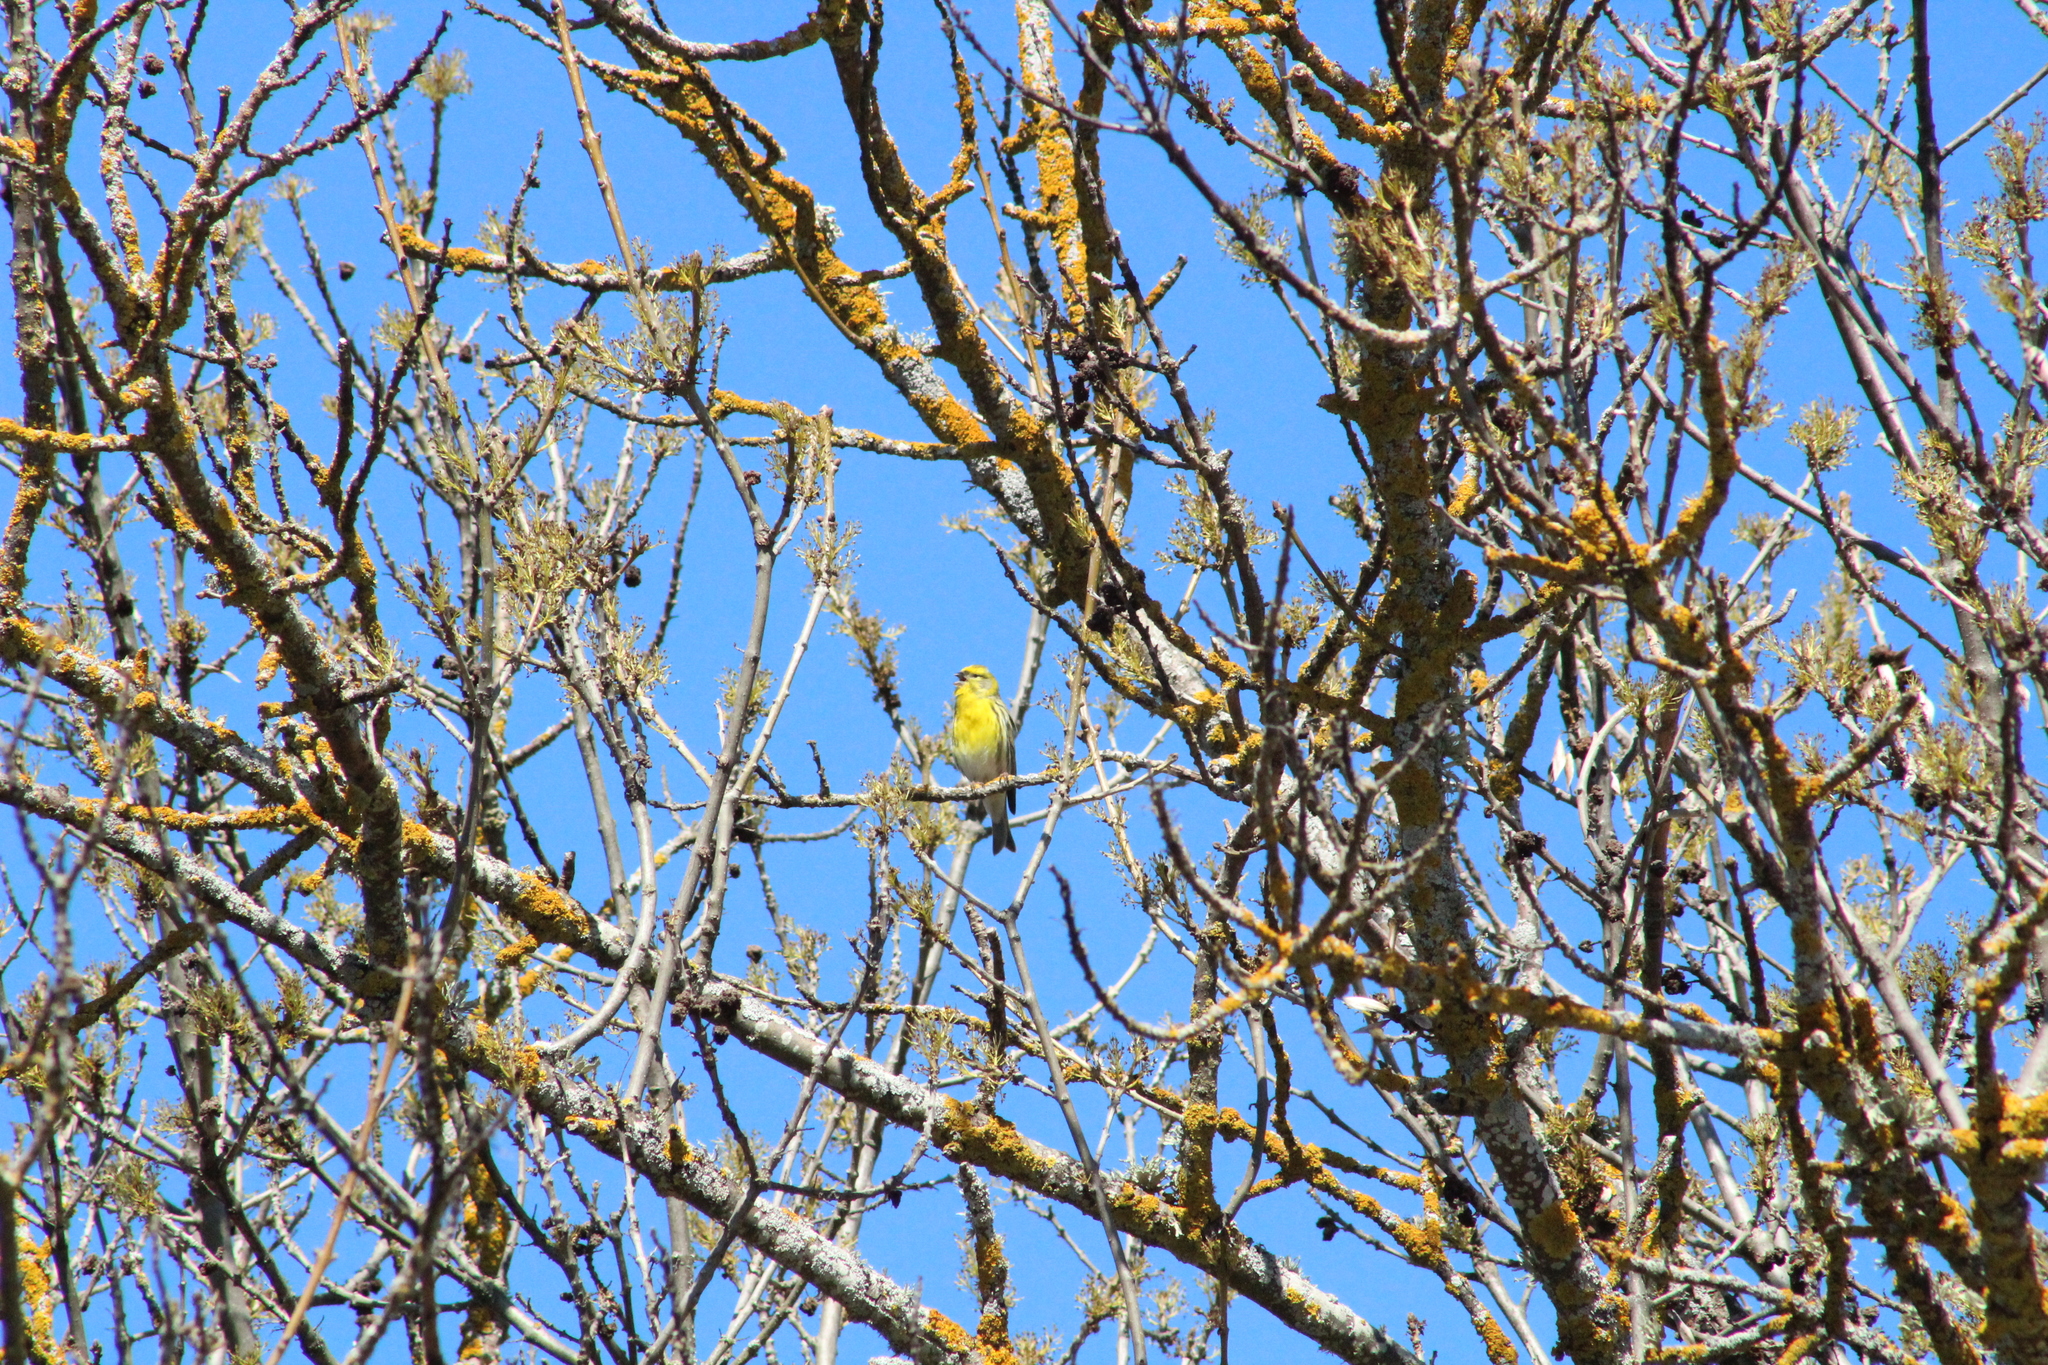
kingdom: Animalia
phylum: Chordata
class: Aves
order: Passeriformes
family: Fringillidae
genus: Serinus
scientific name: Serinus serinus
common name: European serin
